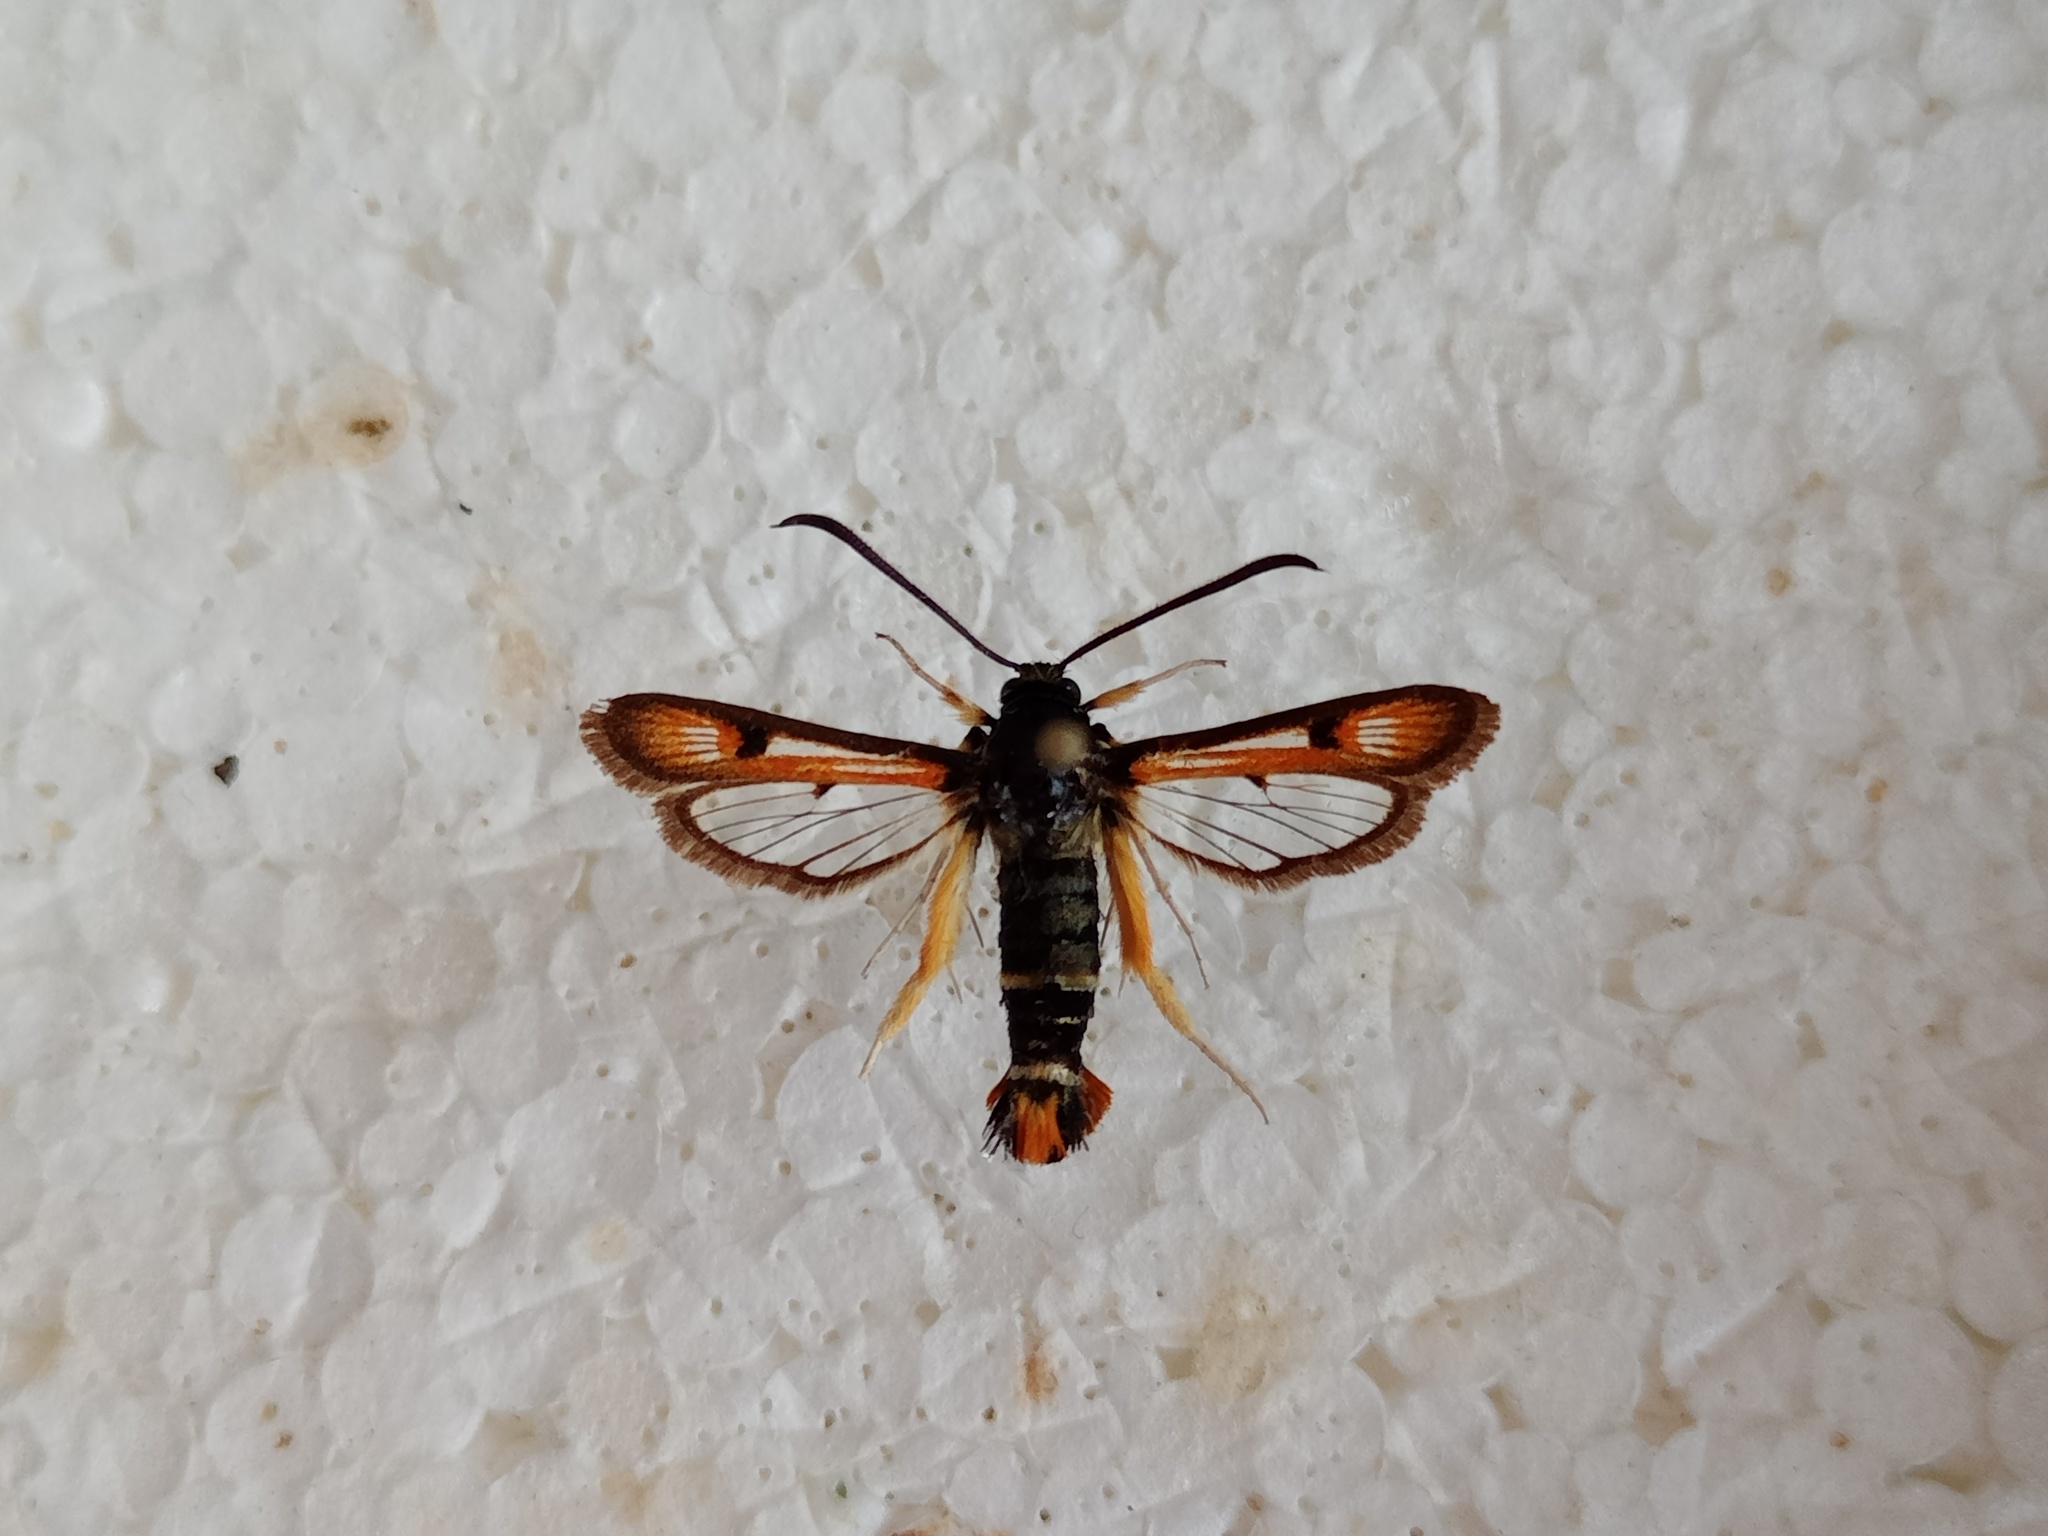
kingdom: Animalia
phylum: Arthropoda
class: Insecta
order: Lepidoptera
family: Sesiidae
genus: Pyropteron
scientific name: Pyropteron chrysidiforme
